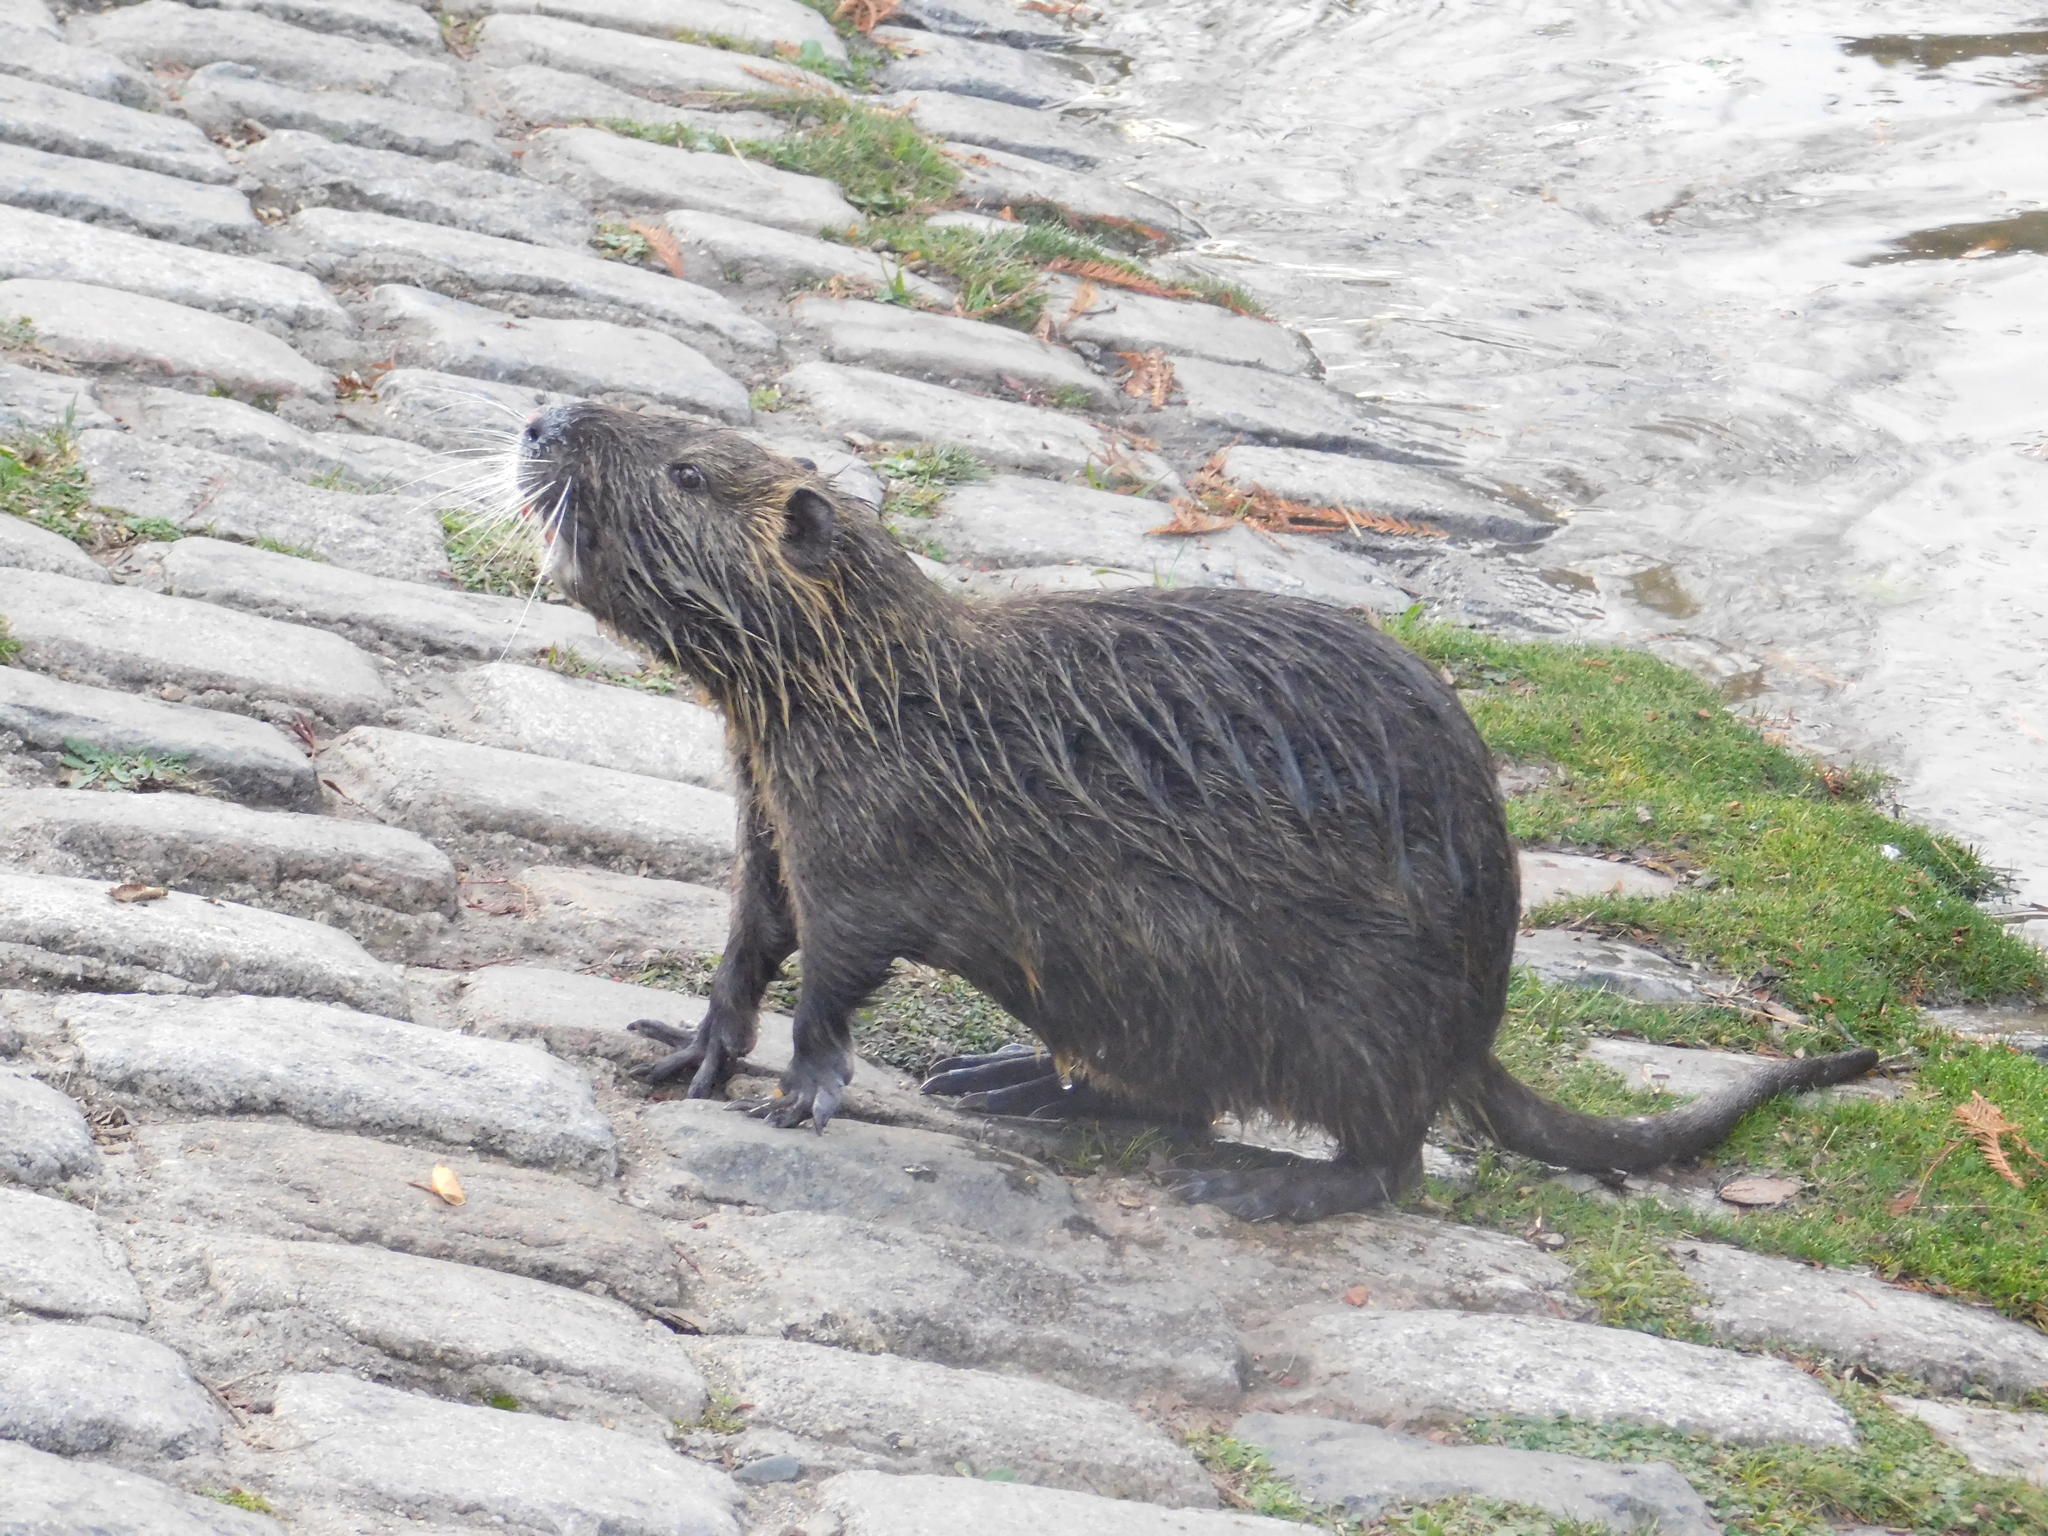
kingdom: Animalia
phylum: Chordata
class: Mammalia
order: Rodentia
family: Myocastoridae
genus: Myocastor
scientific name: Myocastor coypus
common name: Coypu
